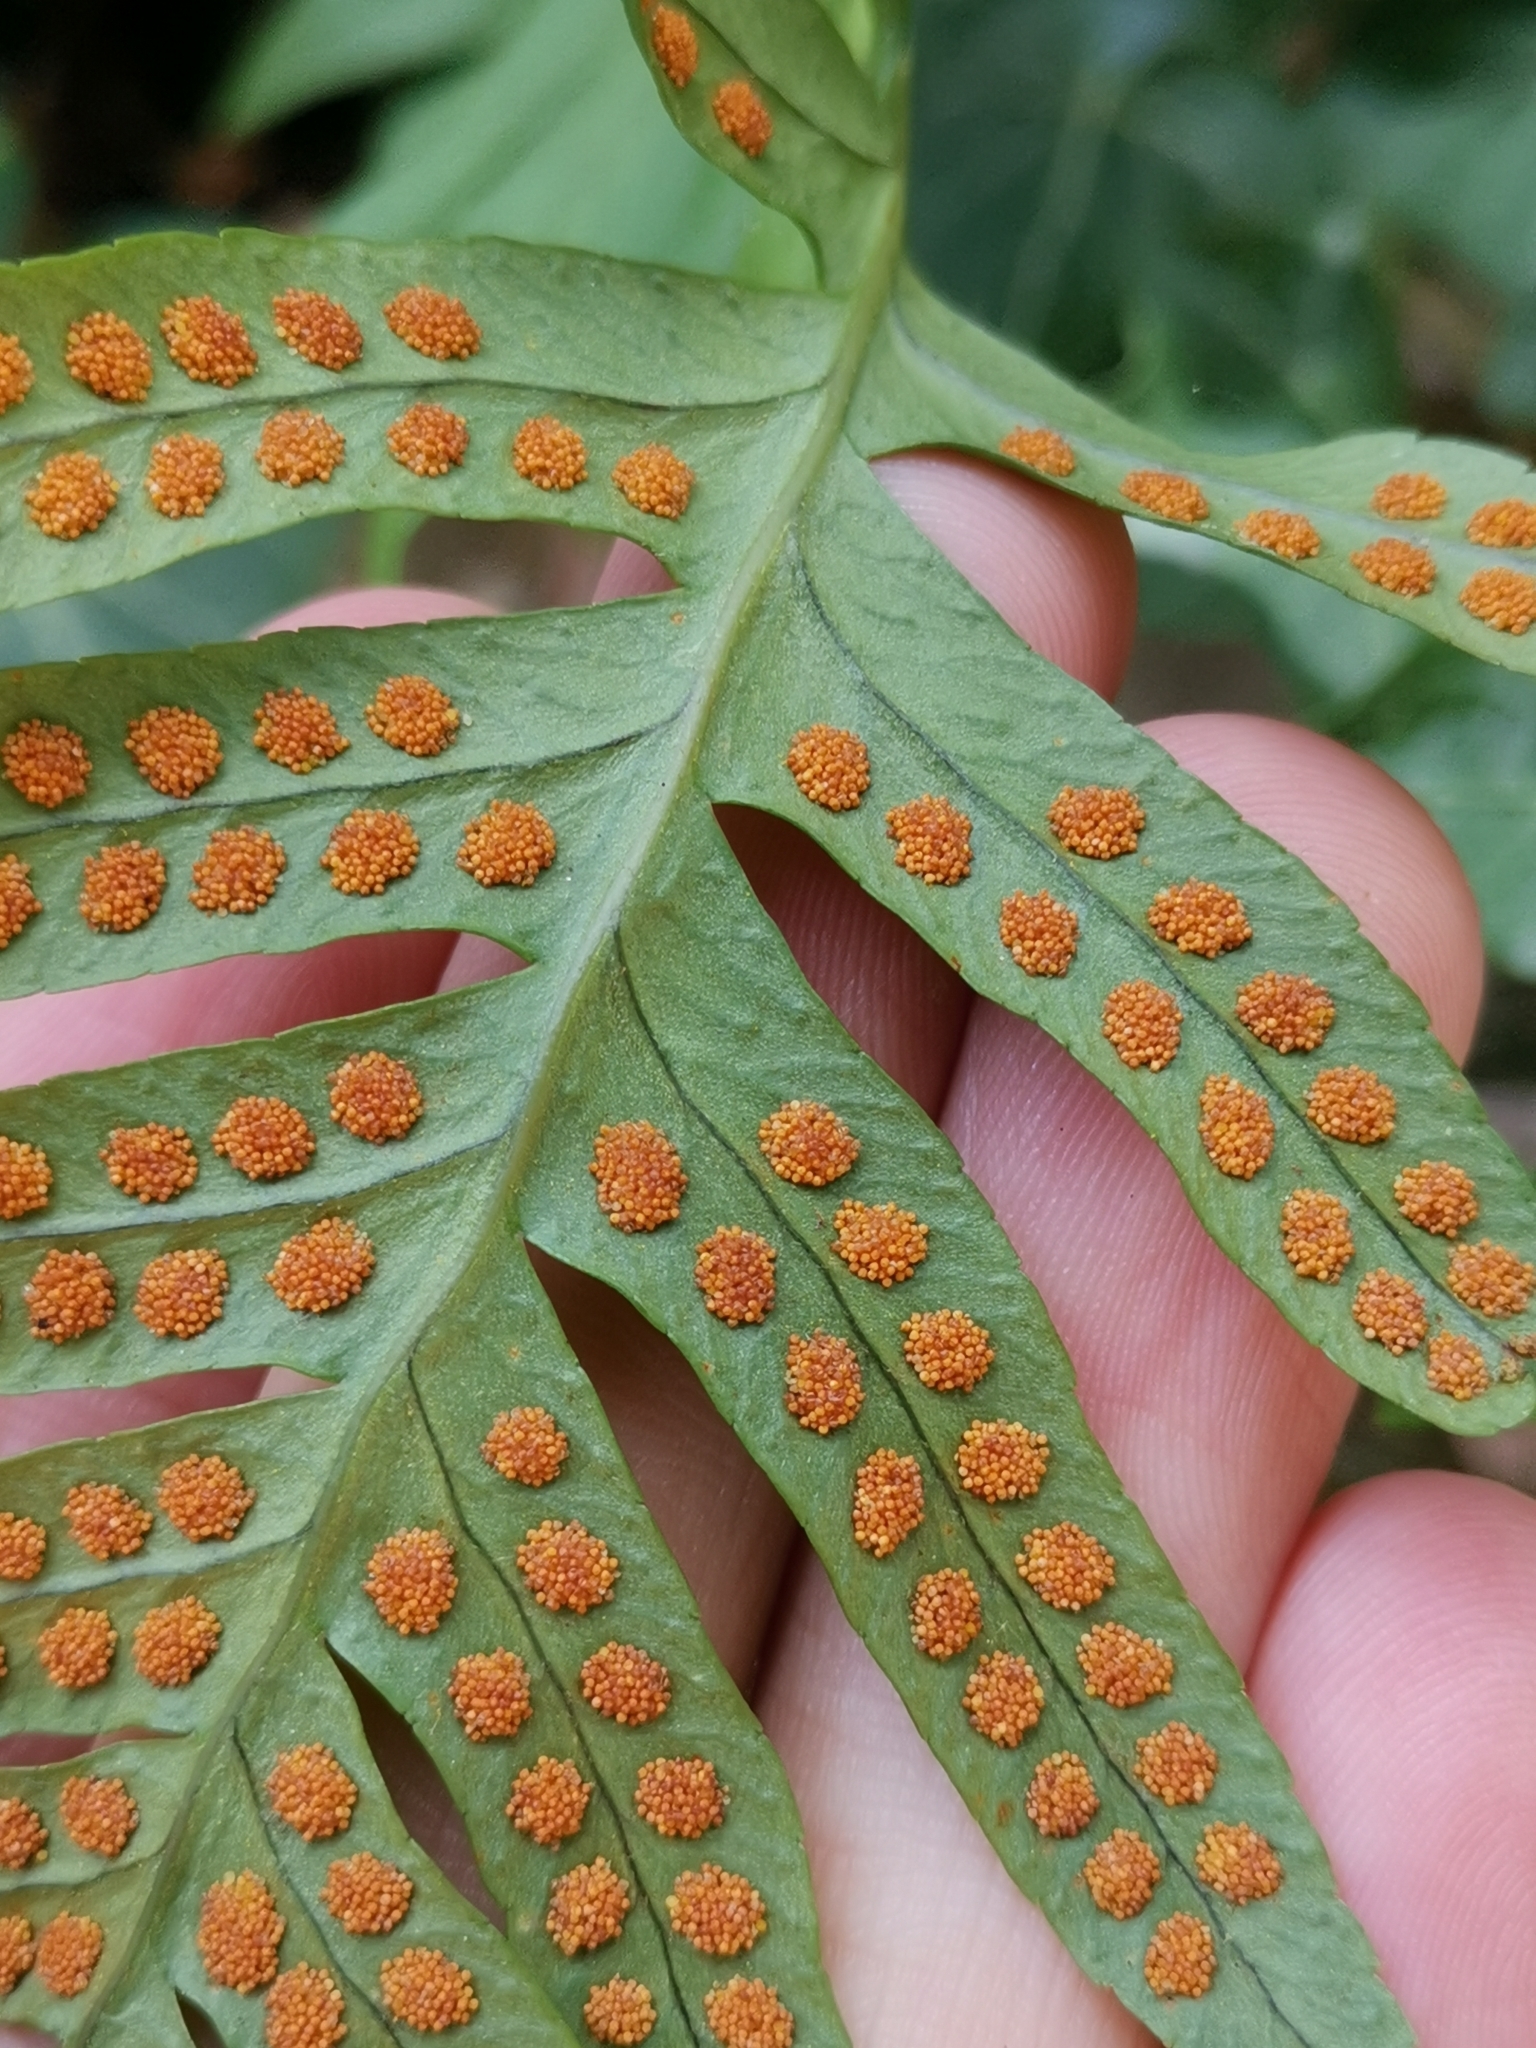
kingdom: Plantae
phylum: Tracheophyta
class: Polypodiopsida
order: Polypodiales
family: Polypodiaceae
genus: Polypodium
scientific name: Polypodium vulgare
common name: Common polypody
